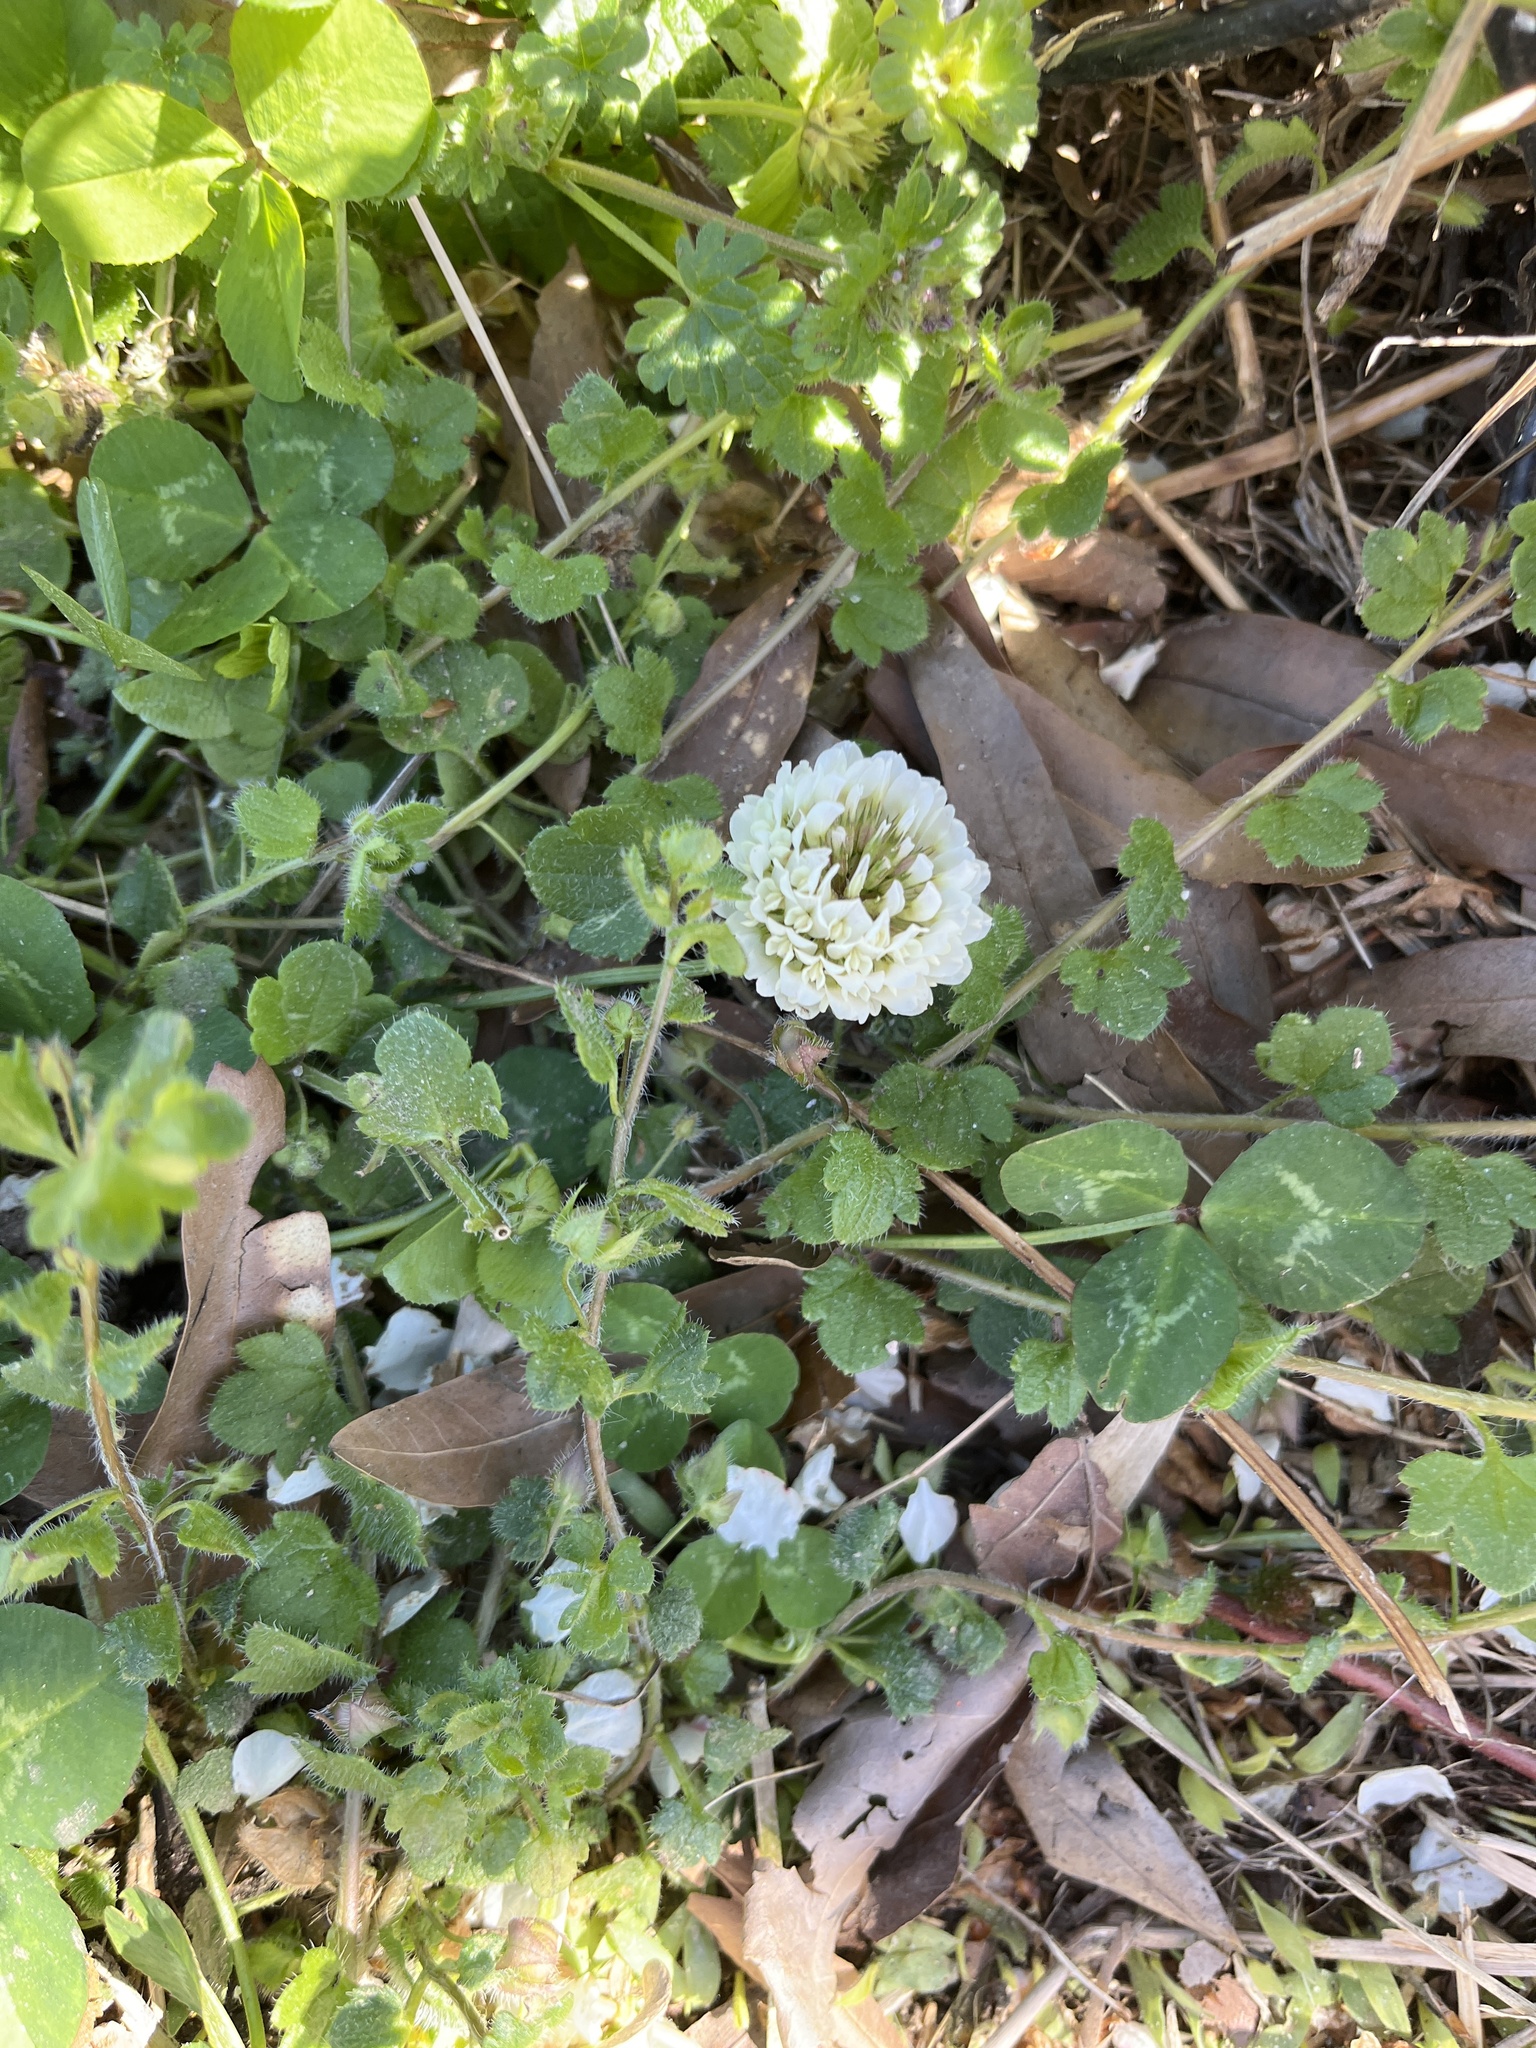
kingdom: Plantae
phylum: Tracheophyta
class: Magnoliopsida
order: Fabales
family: Fabaceae
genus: Trifolium
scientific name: Trifolium repens
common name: White clover
